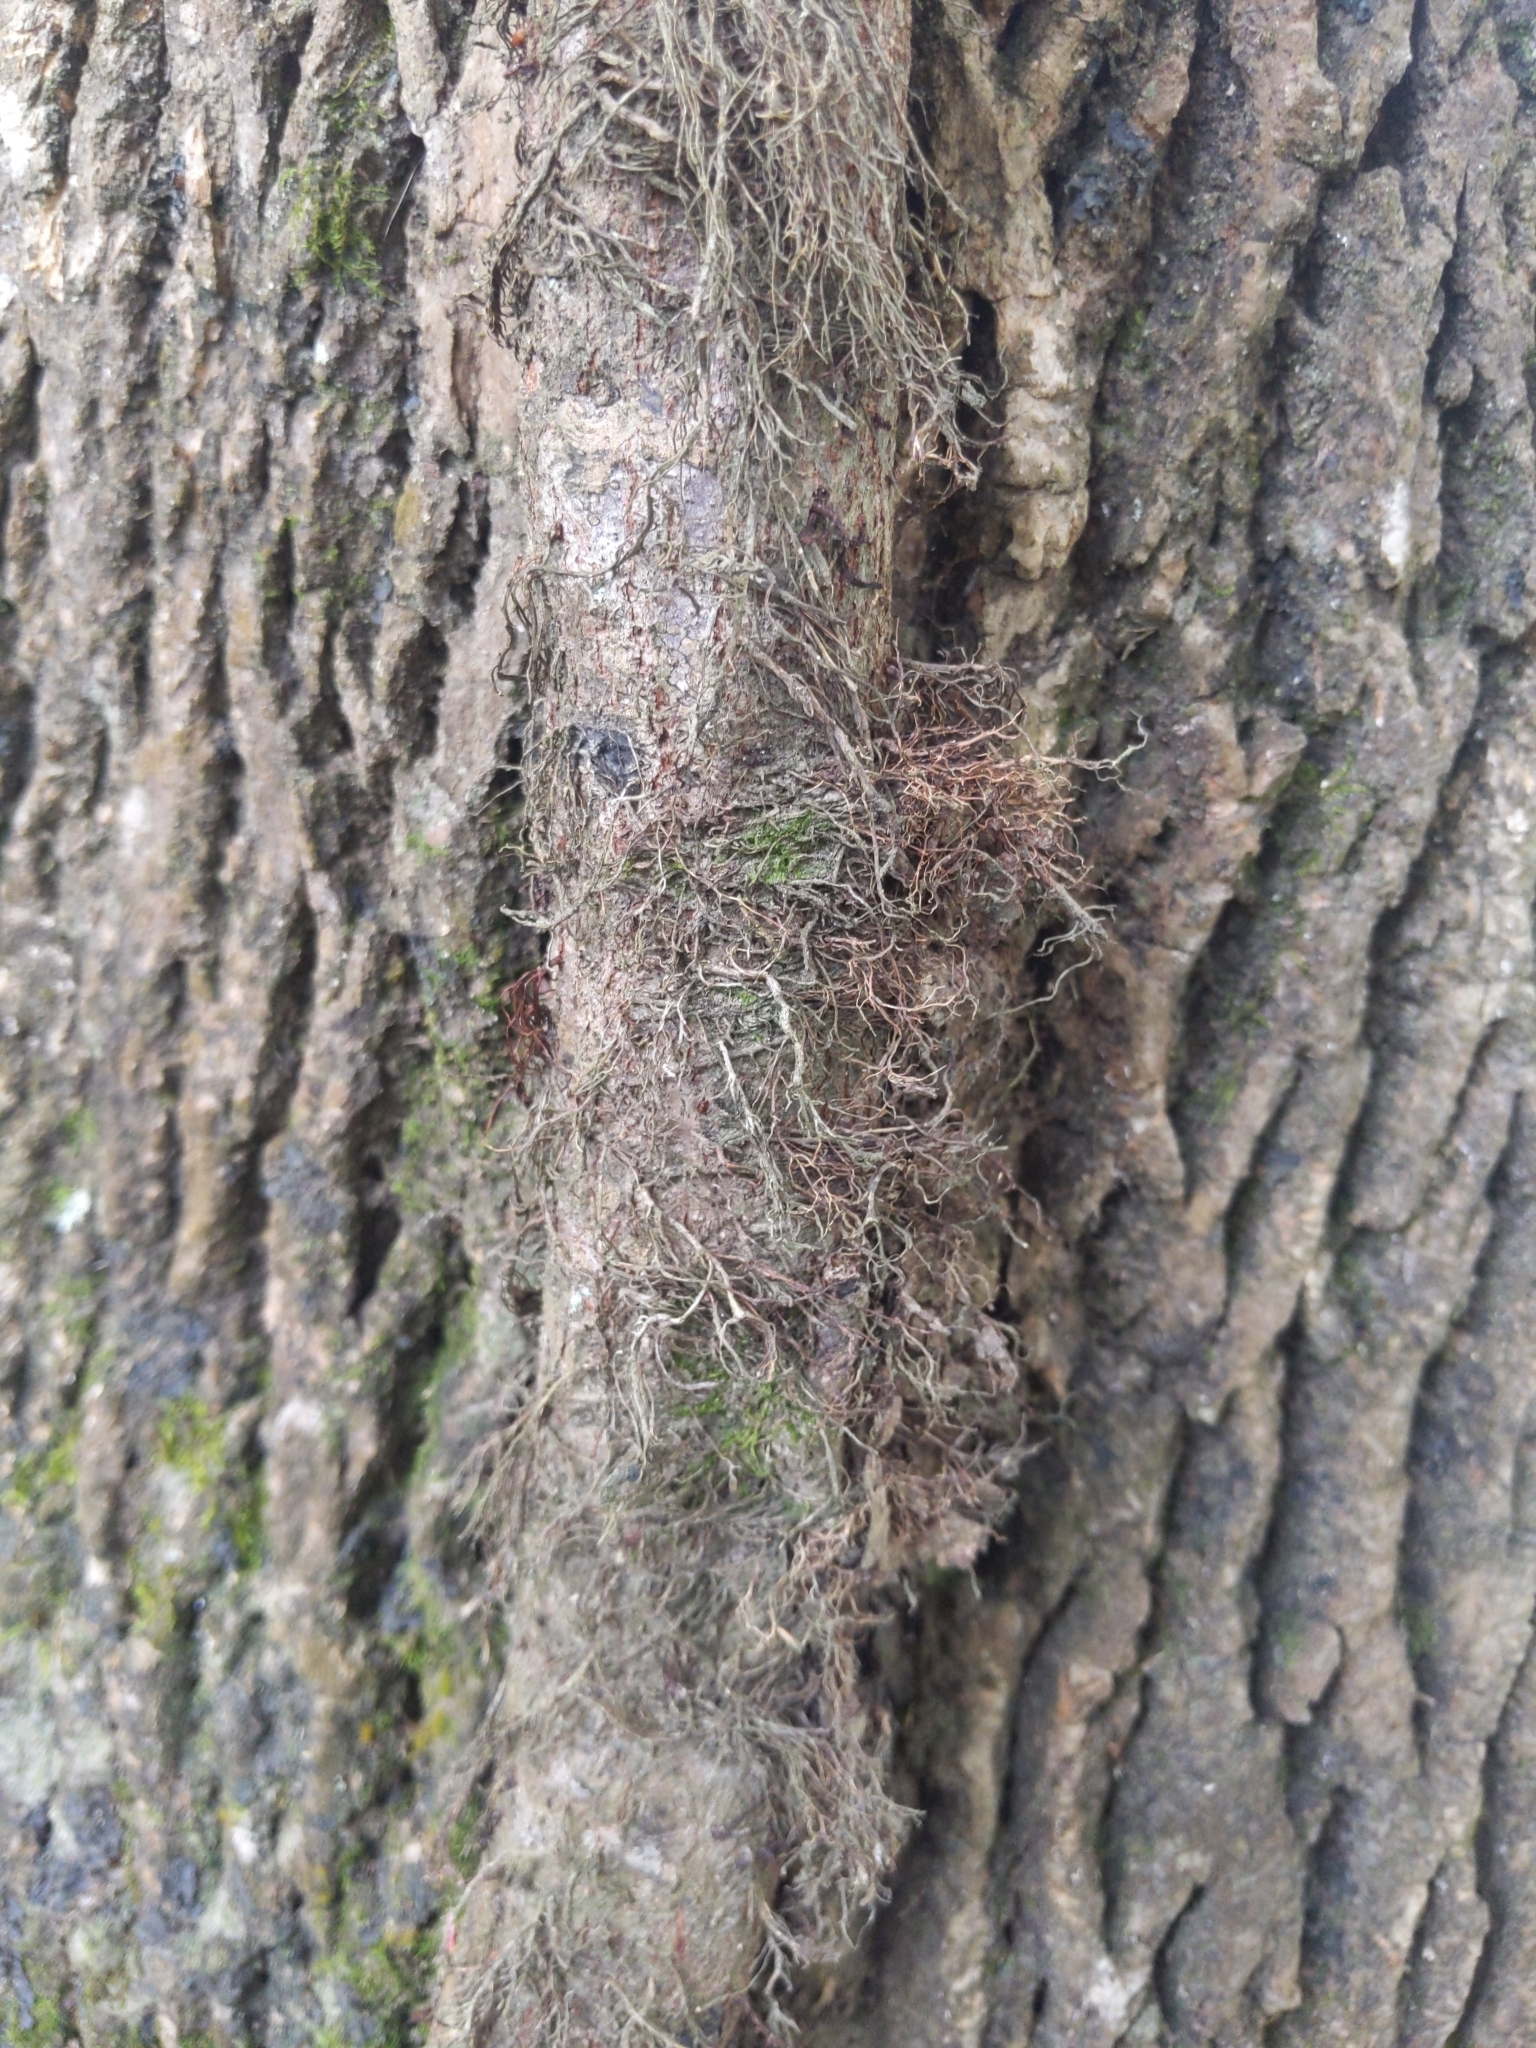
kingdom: Plantae
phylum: Tracheophyta
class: Magnoliopsida
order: Sapindales
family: Anacardiaceae
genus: Toxicodendron
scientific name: Toxicodendron radicans
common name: Poison ivy
